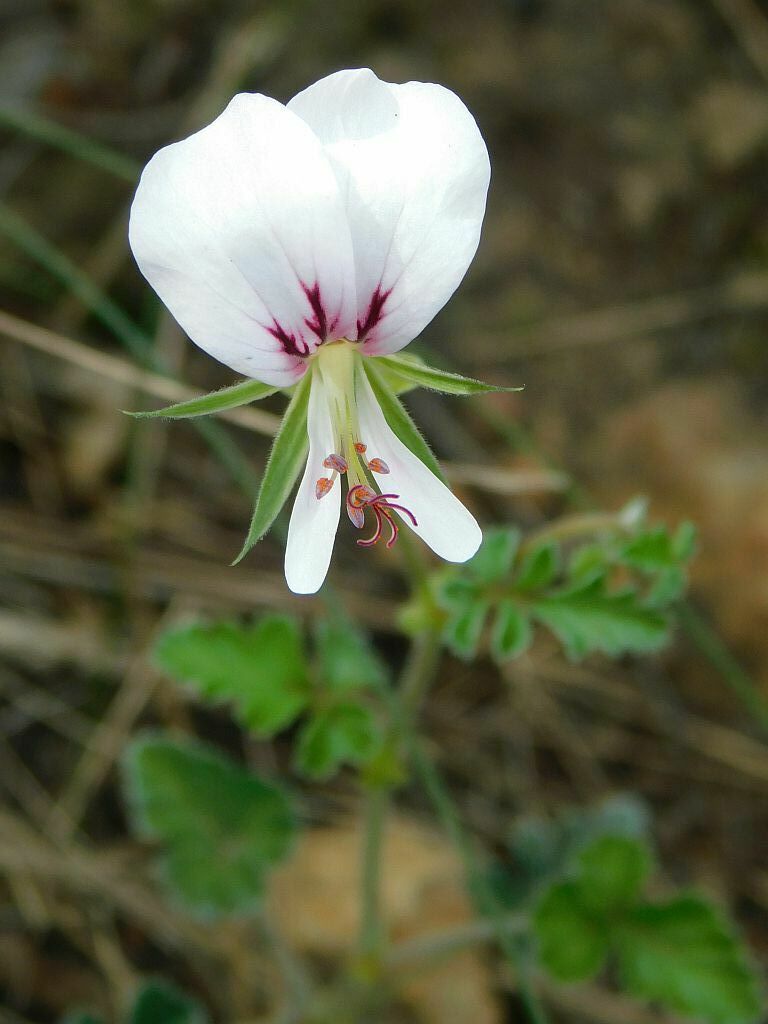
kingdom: Plantae
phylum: Tracheophyta
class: Magnoliopsida
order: Geraniales
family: Geraniaceae
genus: Pelargonium
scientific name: Pelargonium candicans
